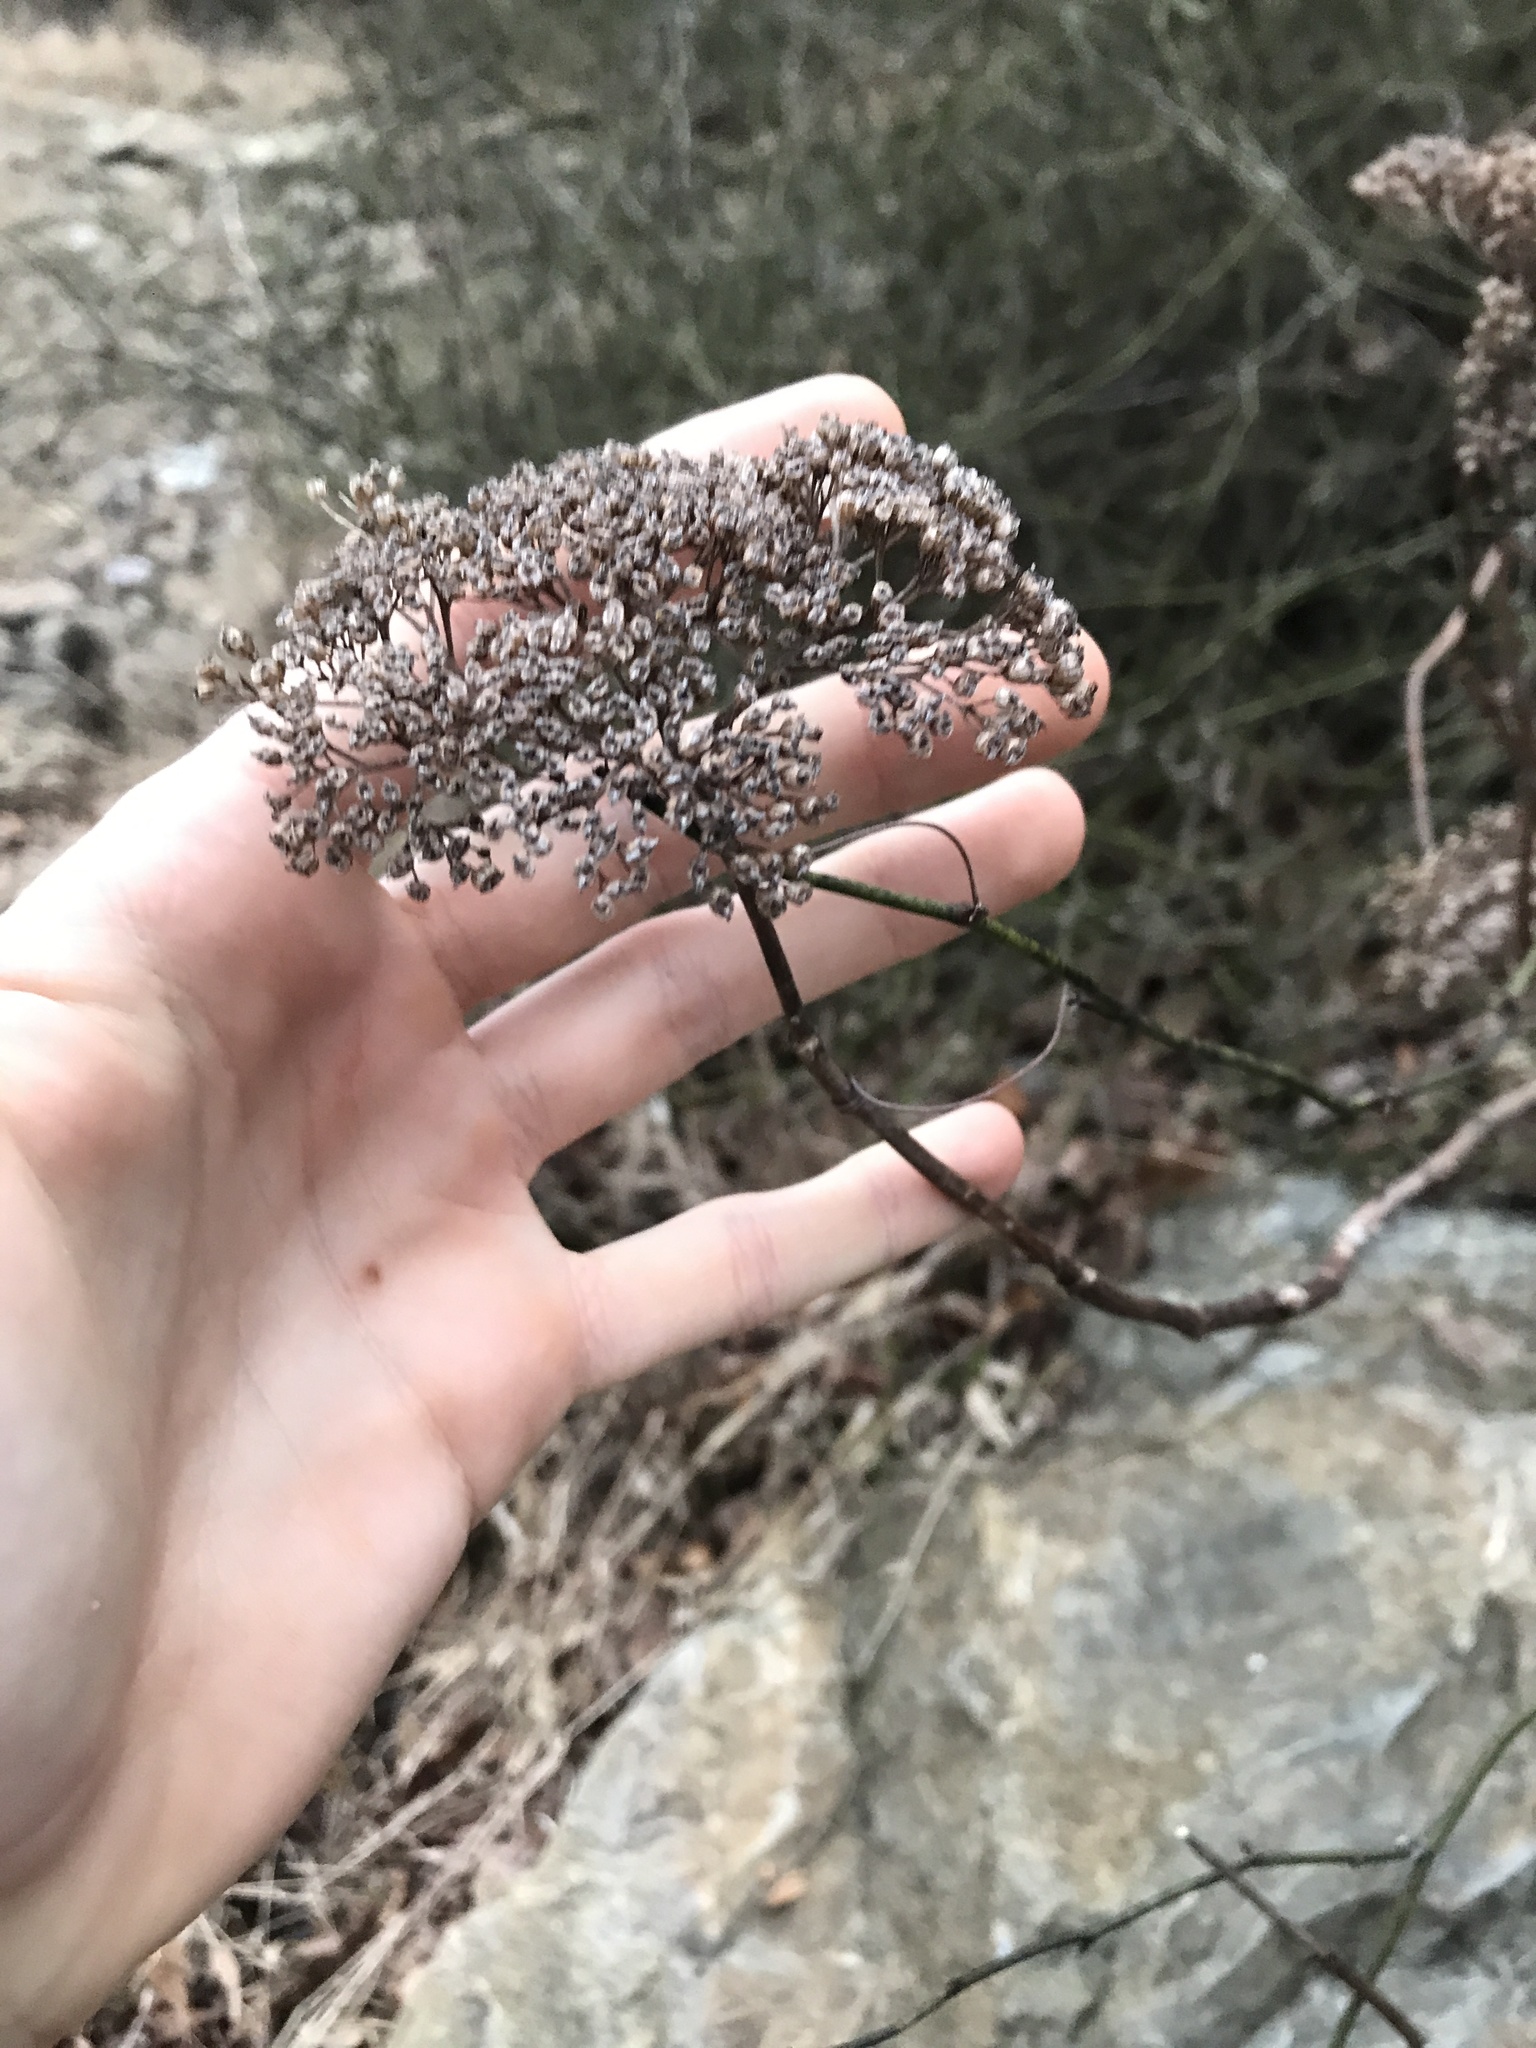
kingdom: Plantae
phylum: Tracheophyta
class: Magnoliopsida
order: Cornales
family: Hydrangeaceae
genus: Hydrangea
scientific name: Hydrangea arborescens
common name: Sevenbark
